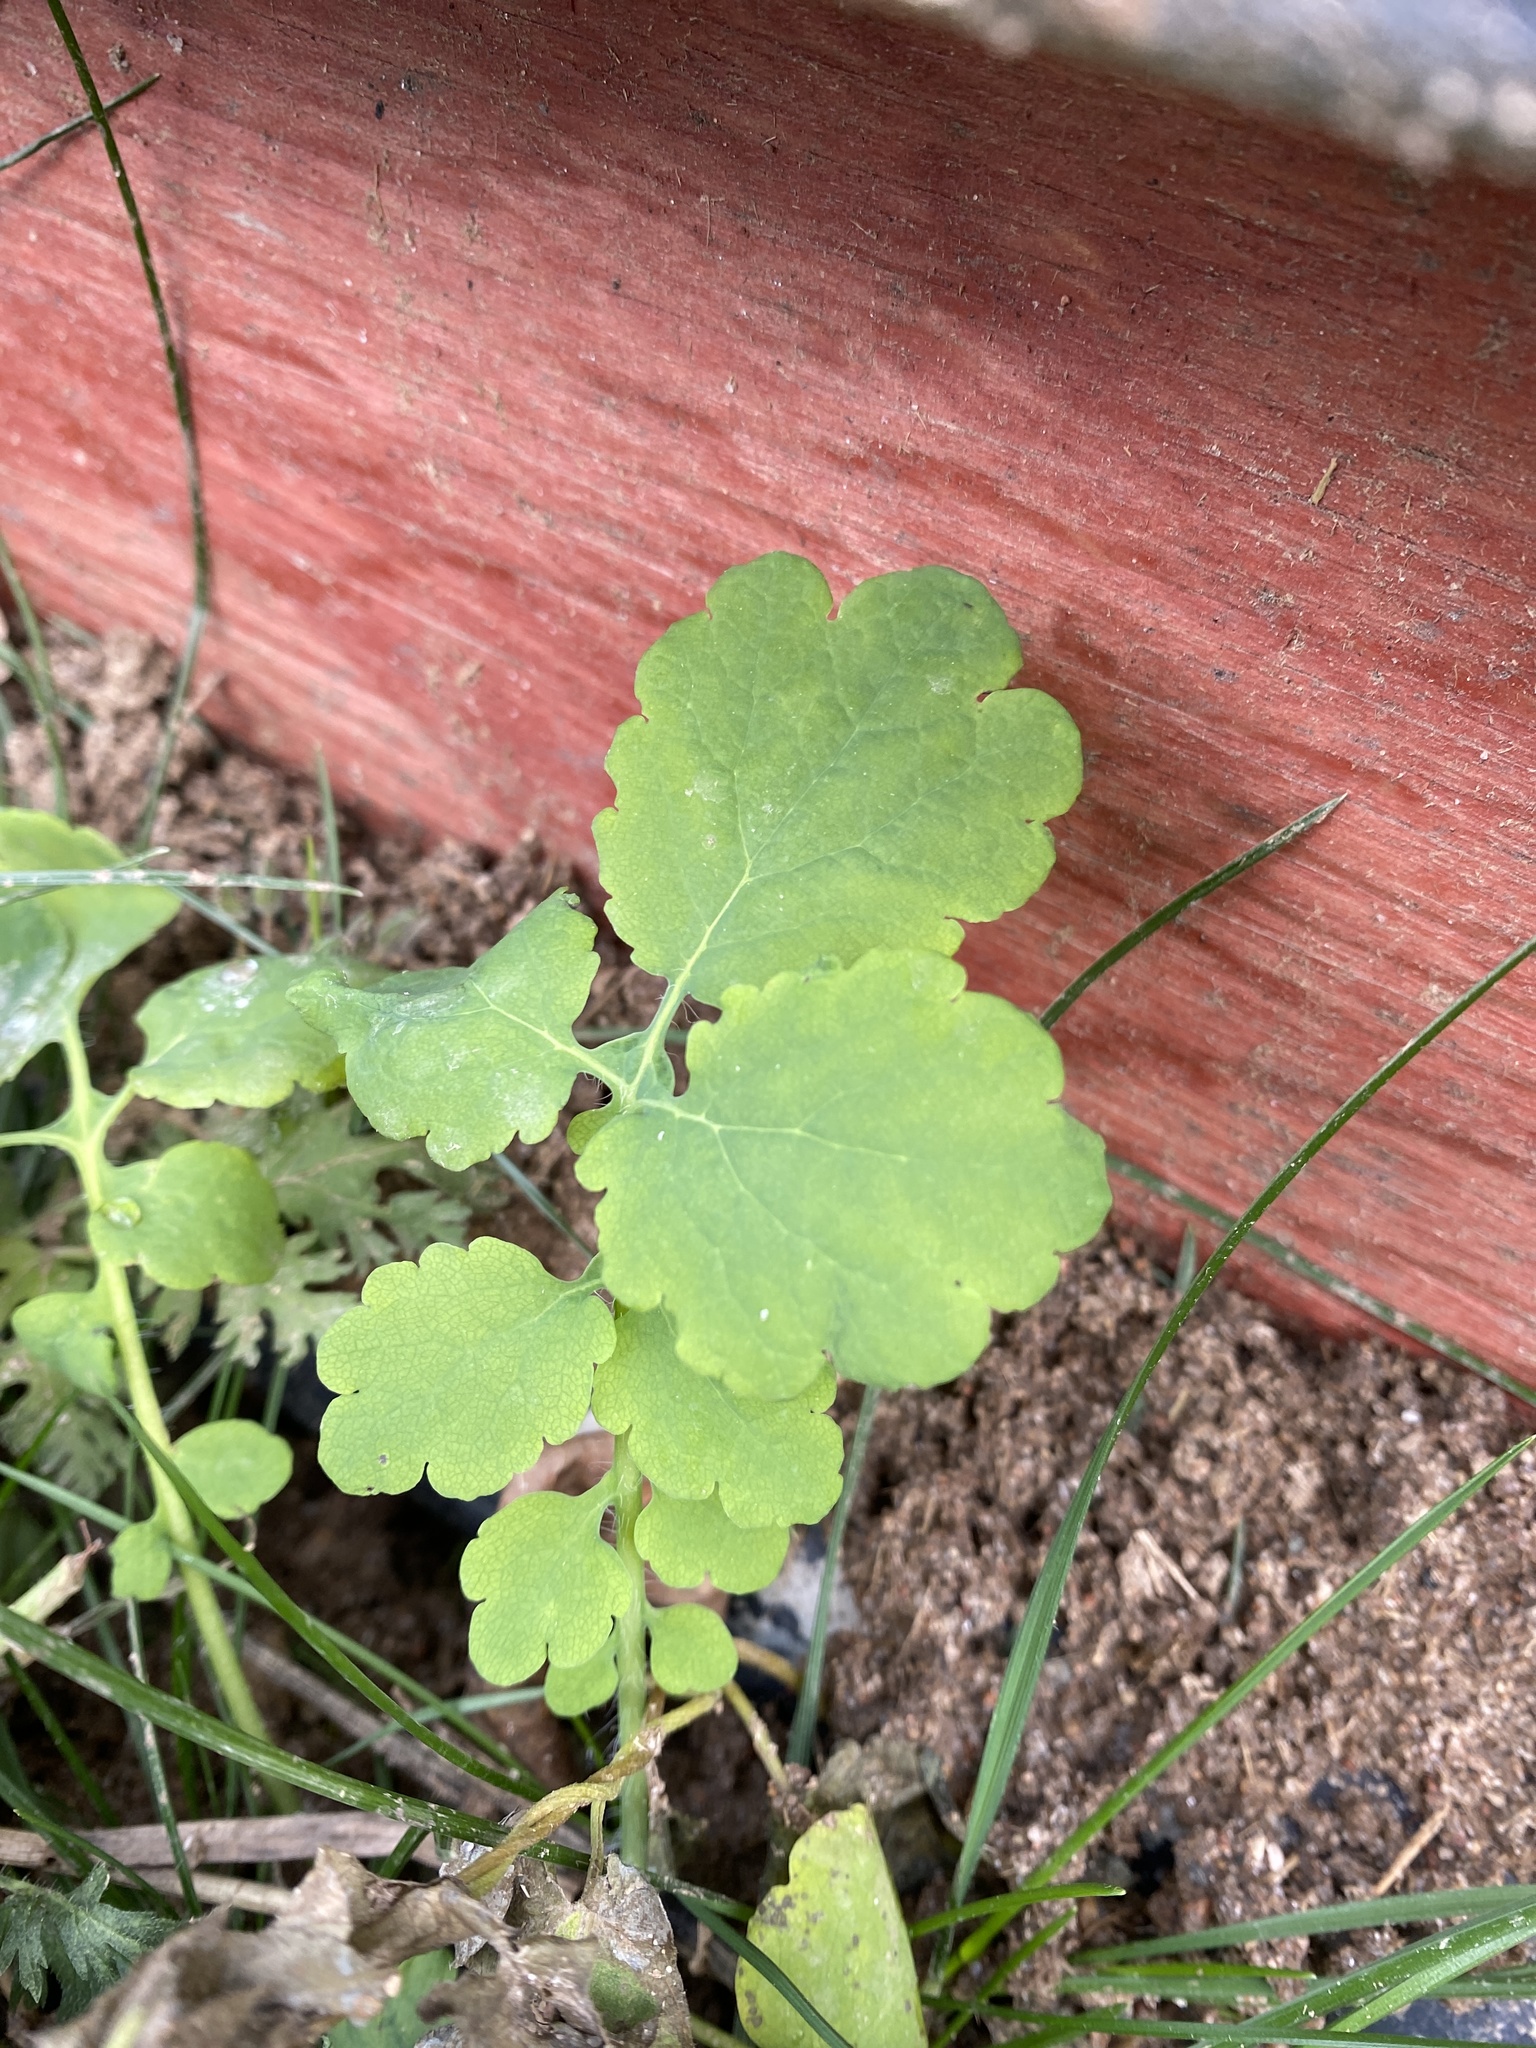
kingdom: Plantae
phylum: Tracheophyta
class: Magnoliopsida
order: Ranunculales
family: Papaveraceae
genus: Chelidonium
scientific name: Chelidonium majus
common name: Greater celandine
